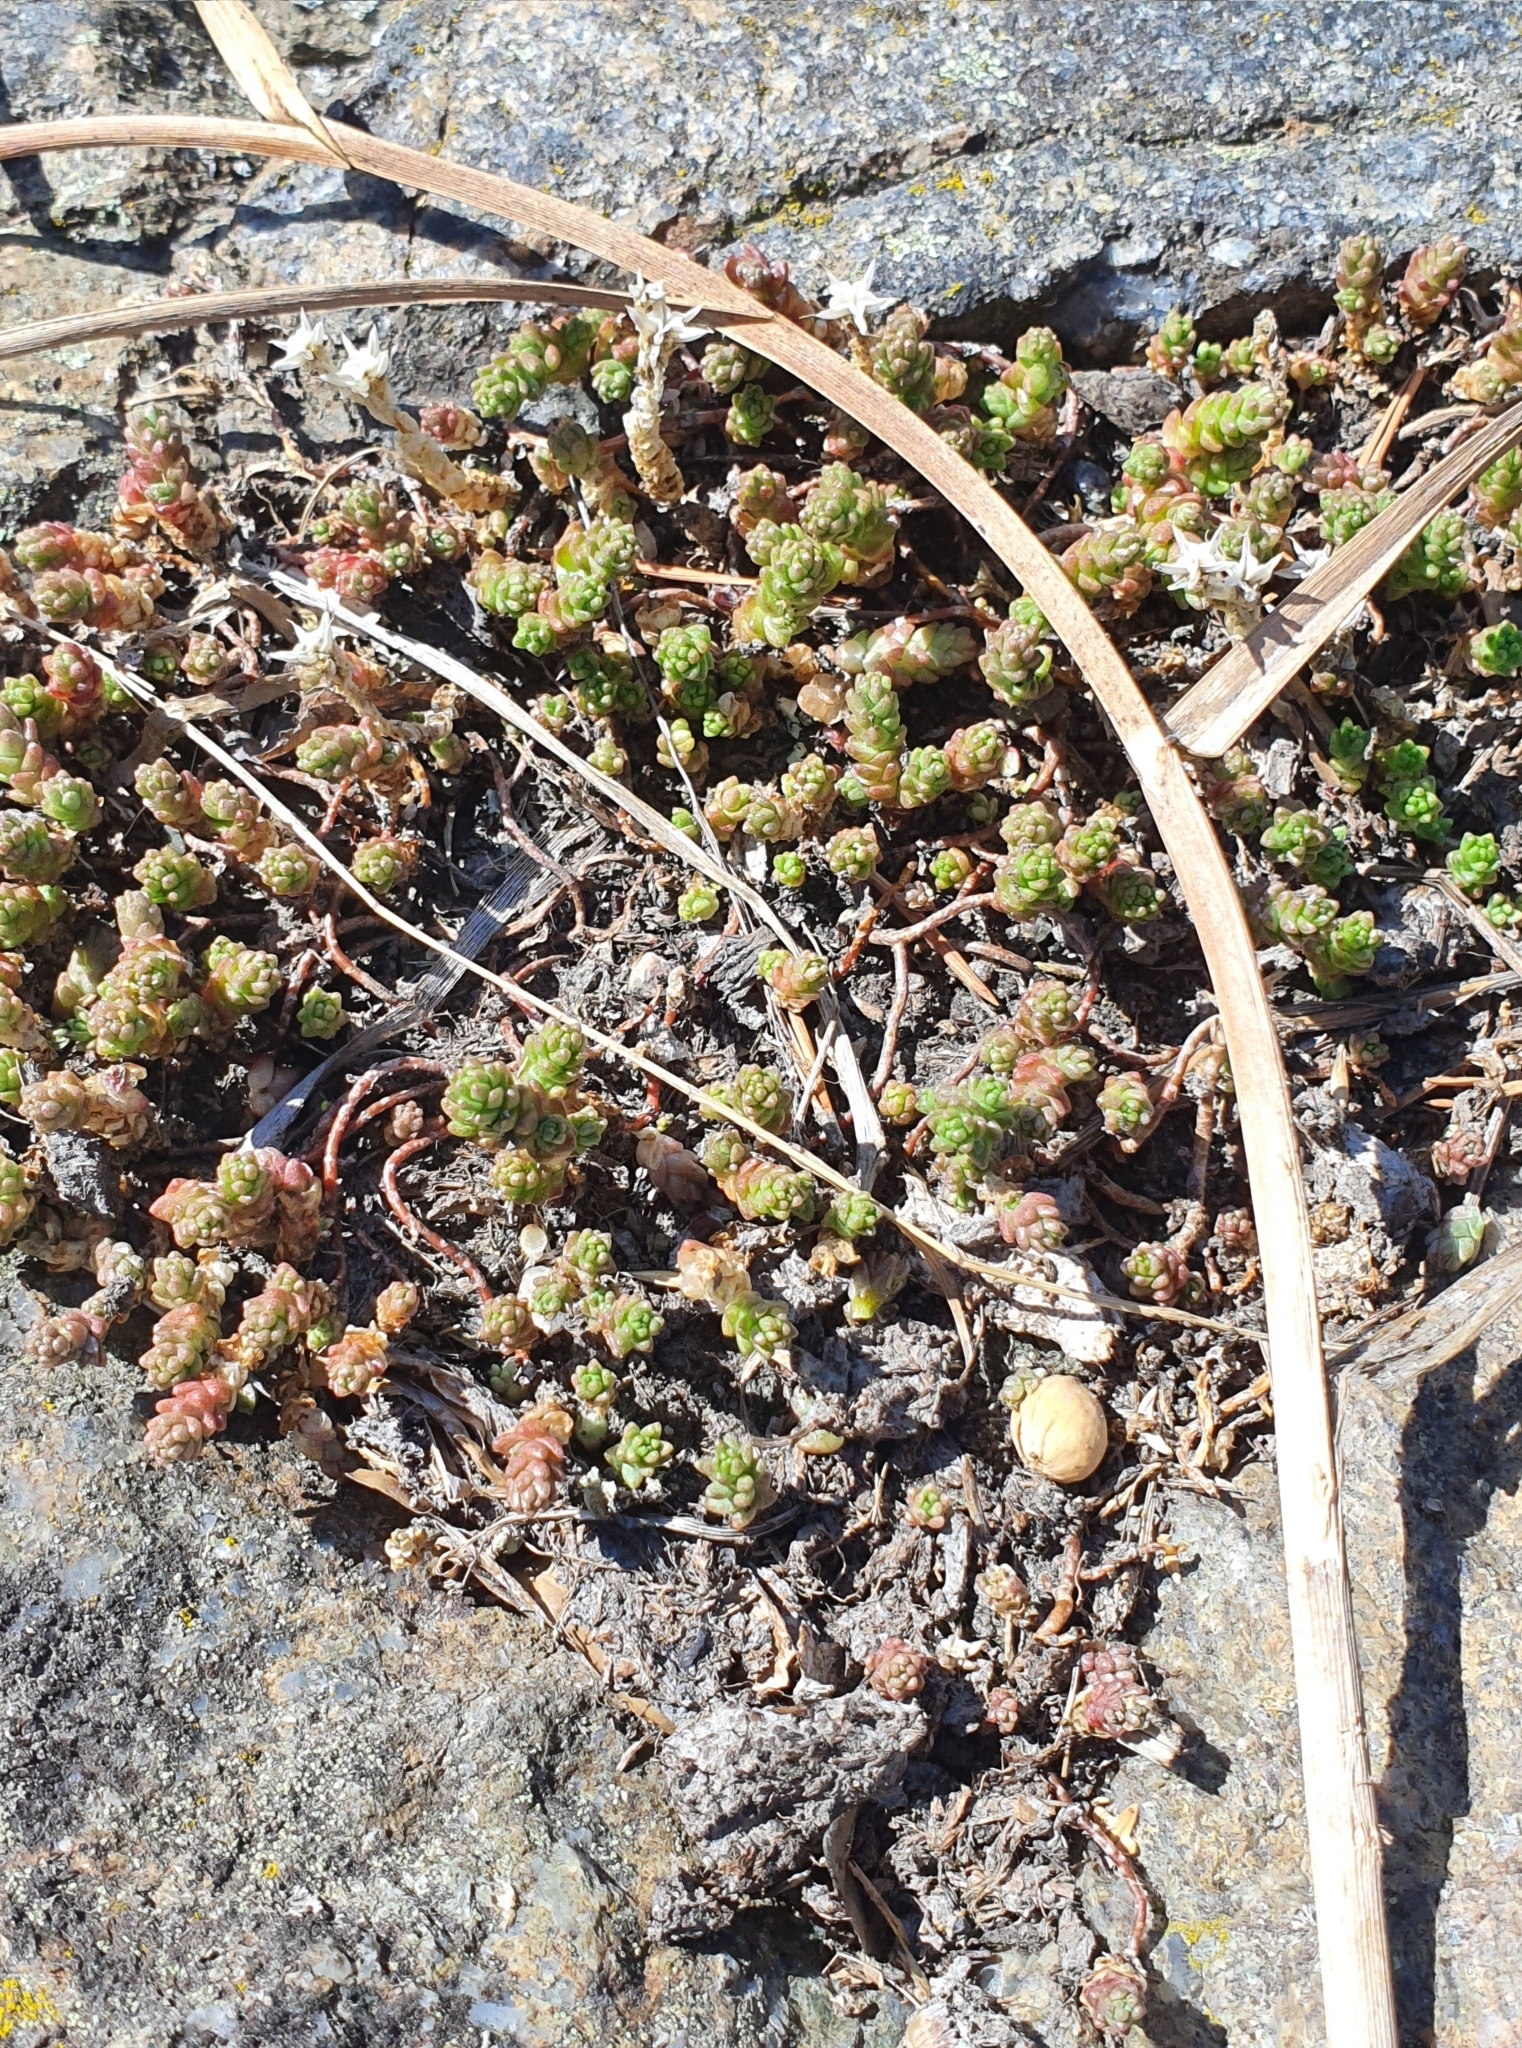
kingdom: Plantae
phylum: Tracheophyta
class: Magnoliopsida
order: Saxifragales
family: Crassulaceae
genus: Sedum
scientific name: Sedum acre
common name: Biting stonecrop
